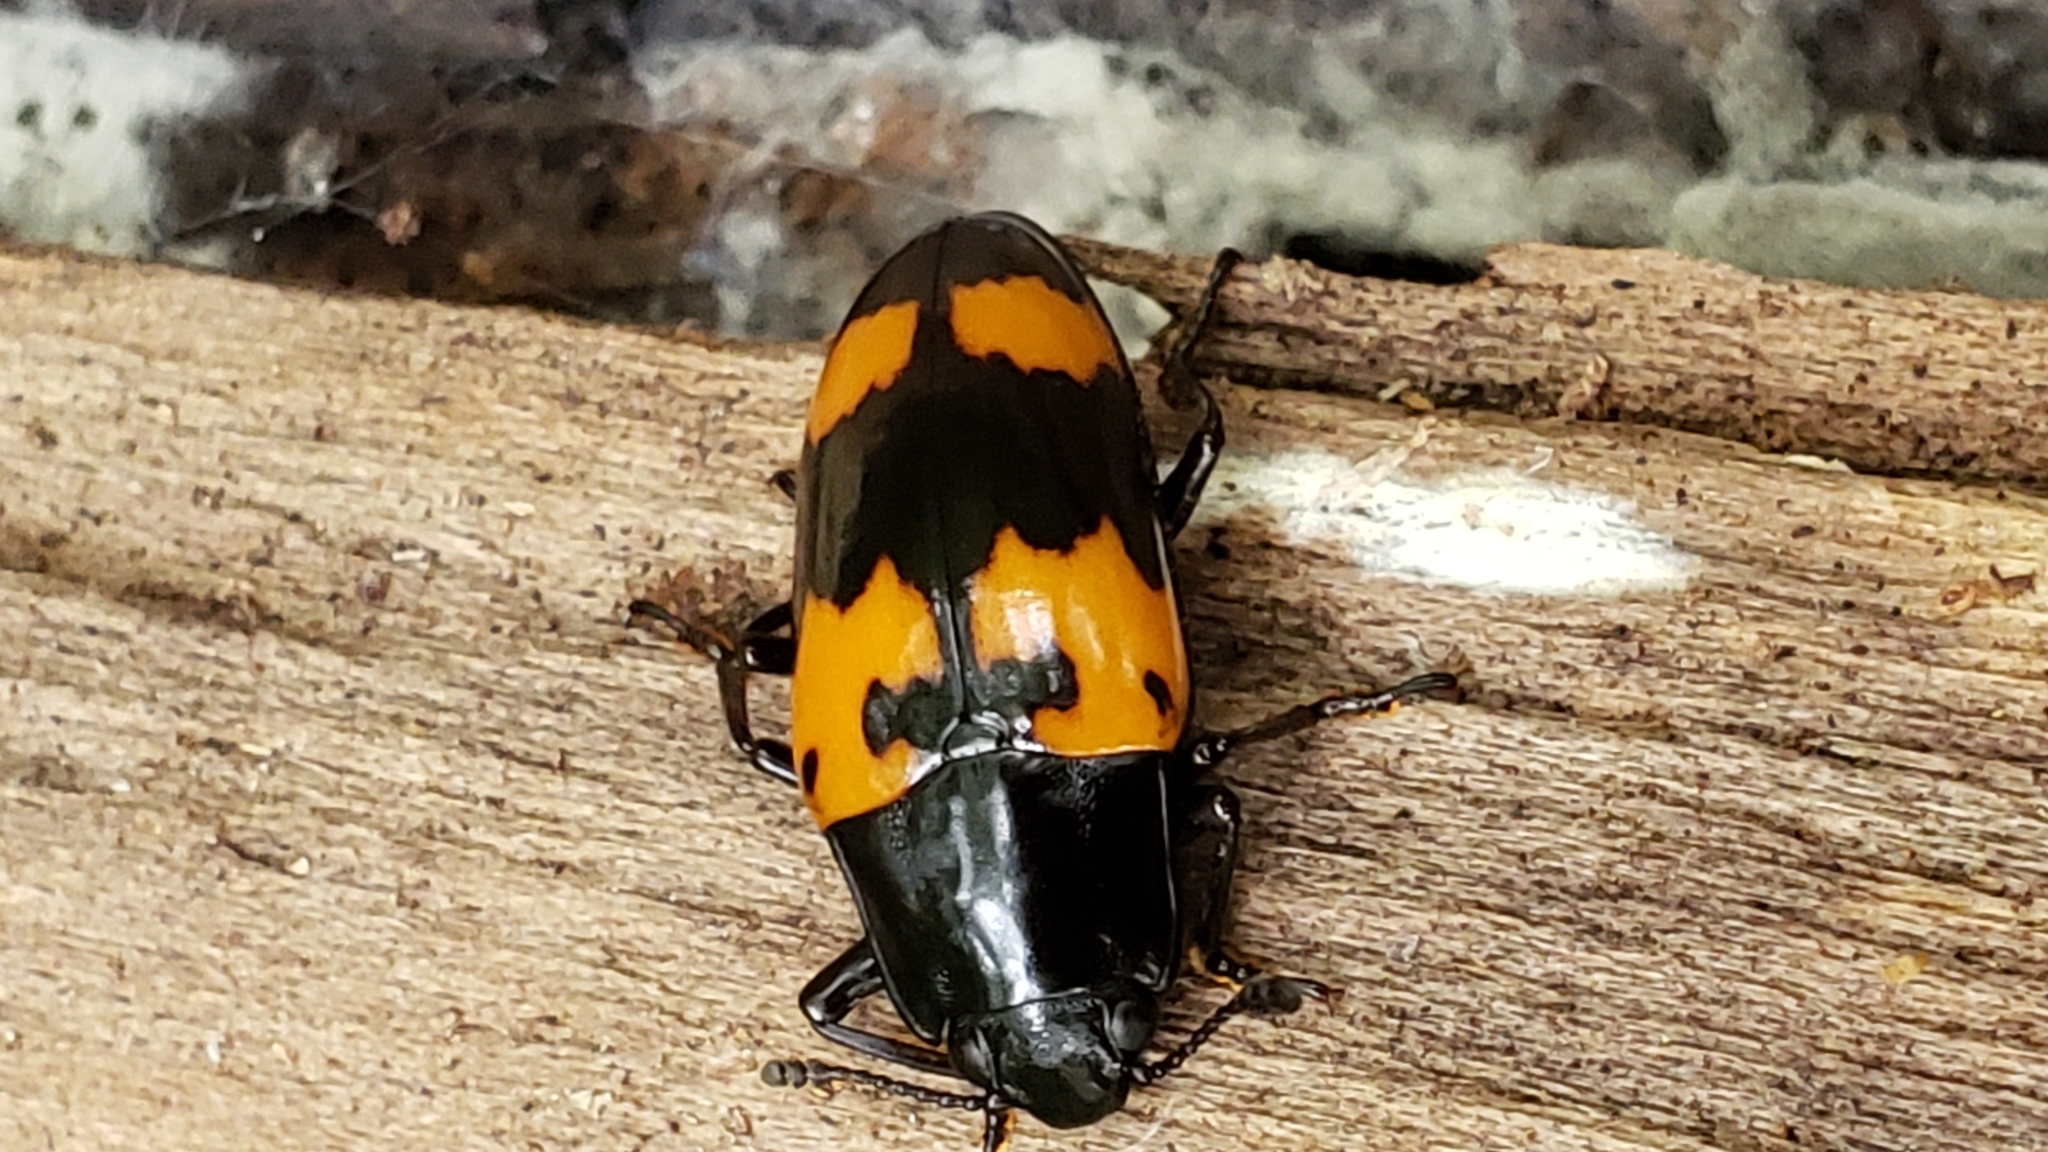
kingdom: Animalia
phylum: Arthropoda
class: Insecta
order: Coleoptera
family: Erotylidae
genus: Megalodacne
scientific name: Megalodacne heros
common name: Pleasing fungus beetle
